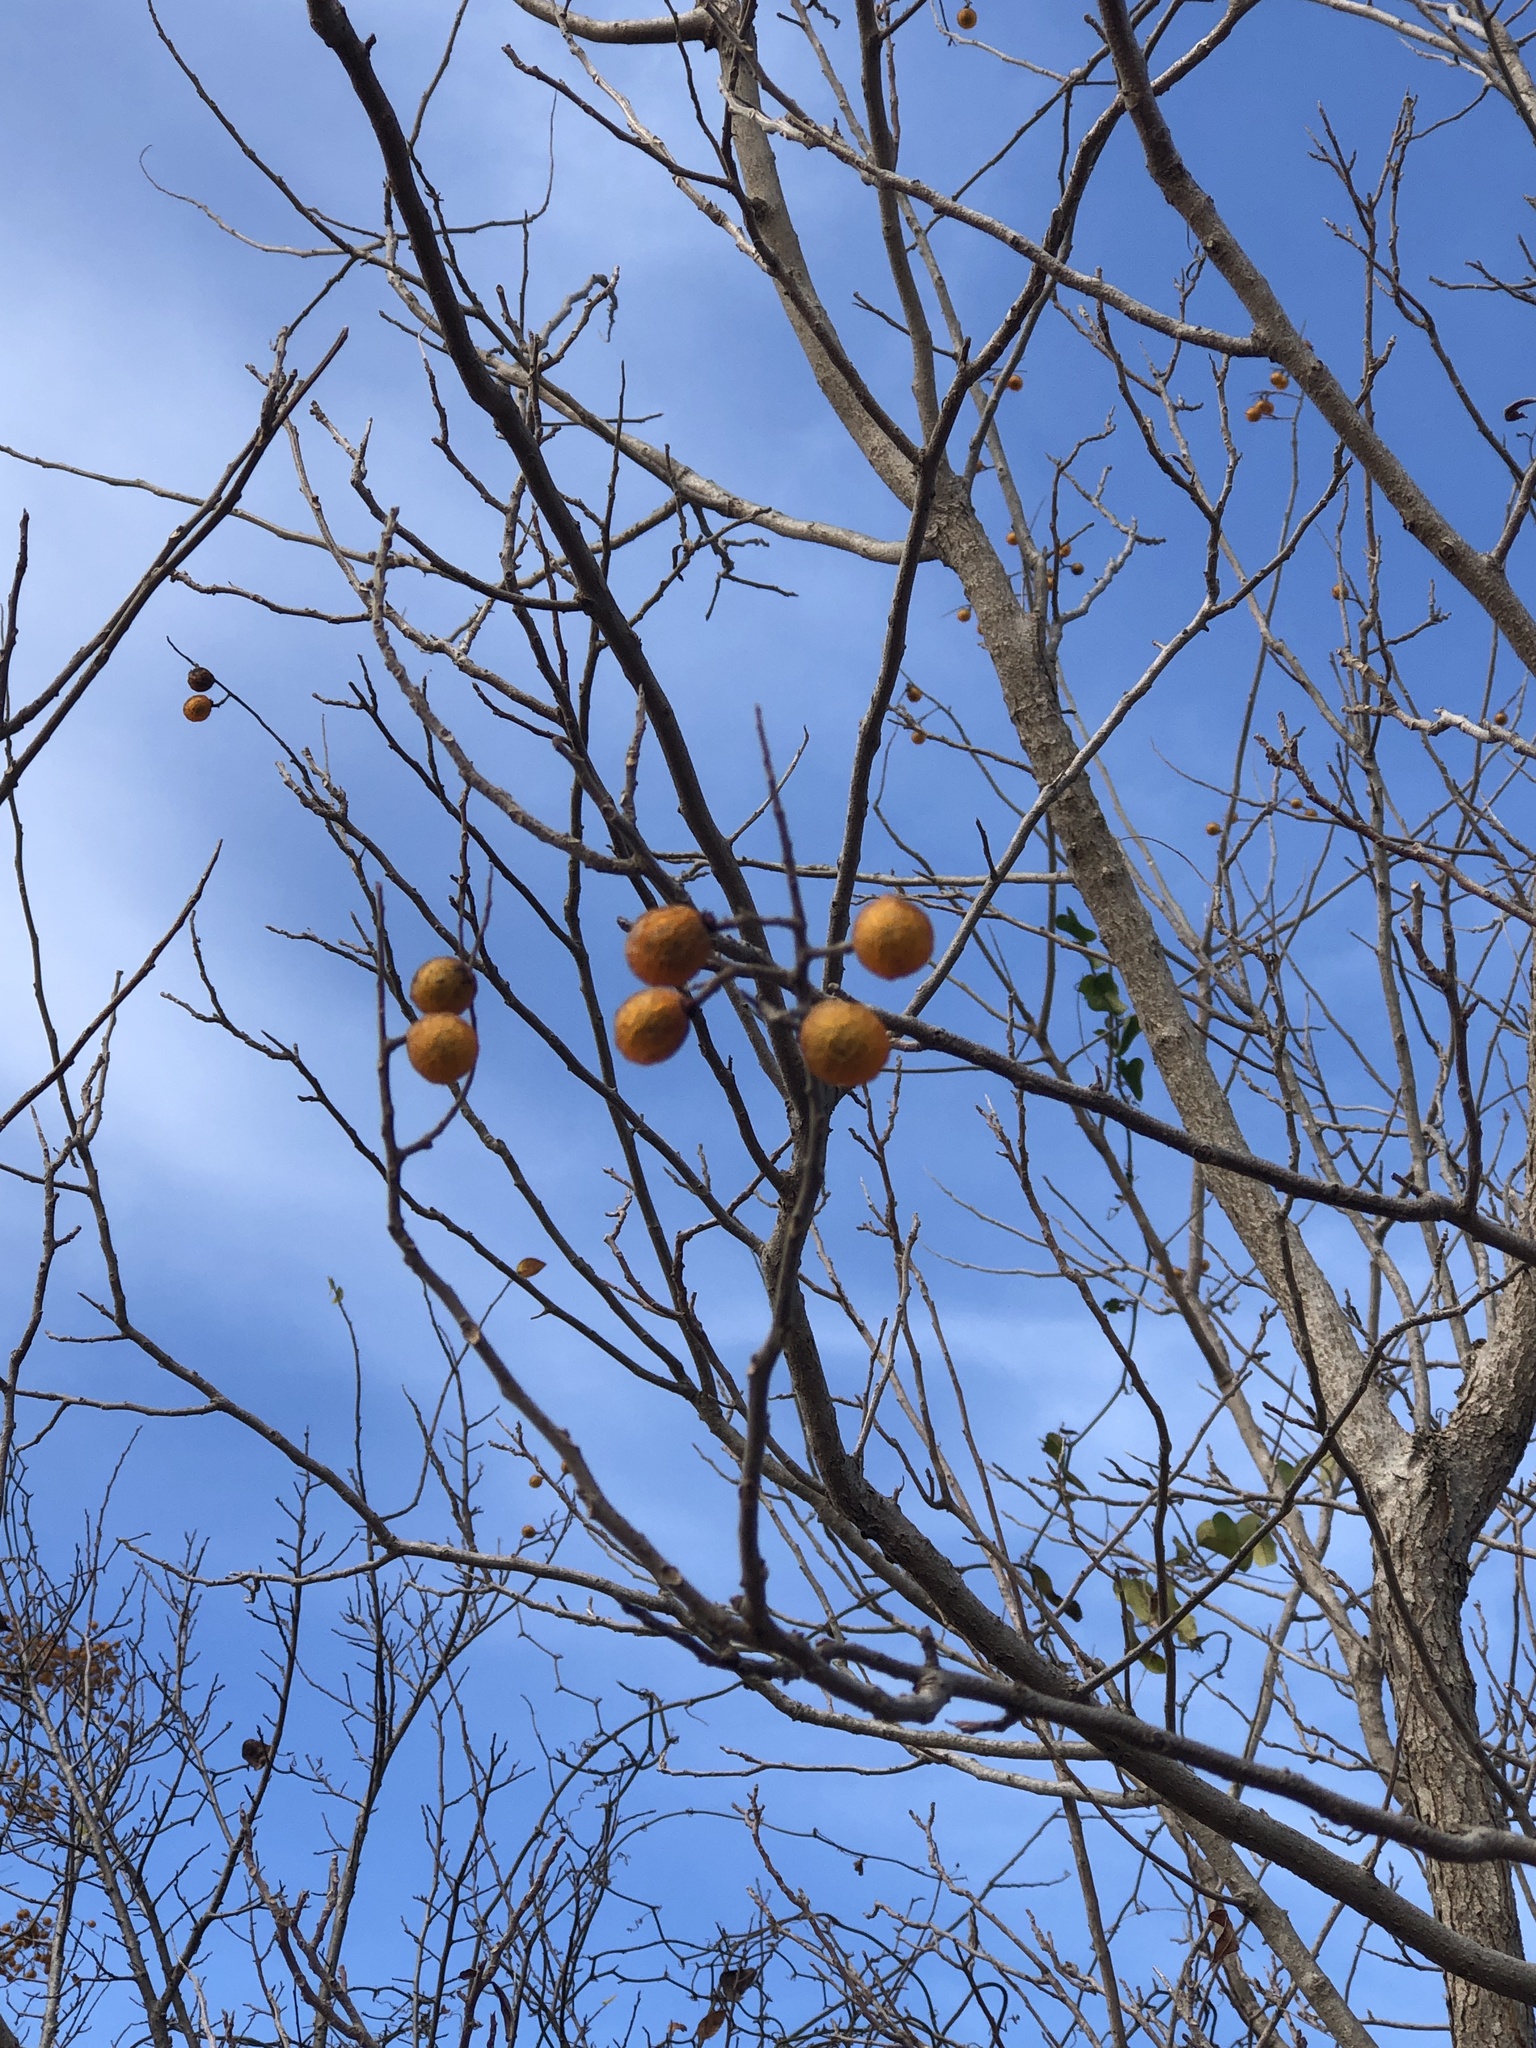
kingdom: Plantae
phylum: Tracheophyta
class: Magnoliopsida
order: Sapindales
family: Sapindaceae
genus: Sapindus
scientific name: Sapindus drummondii
